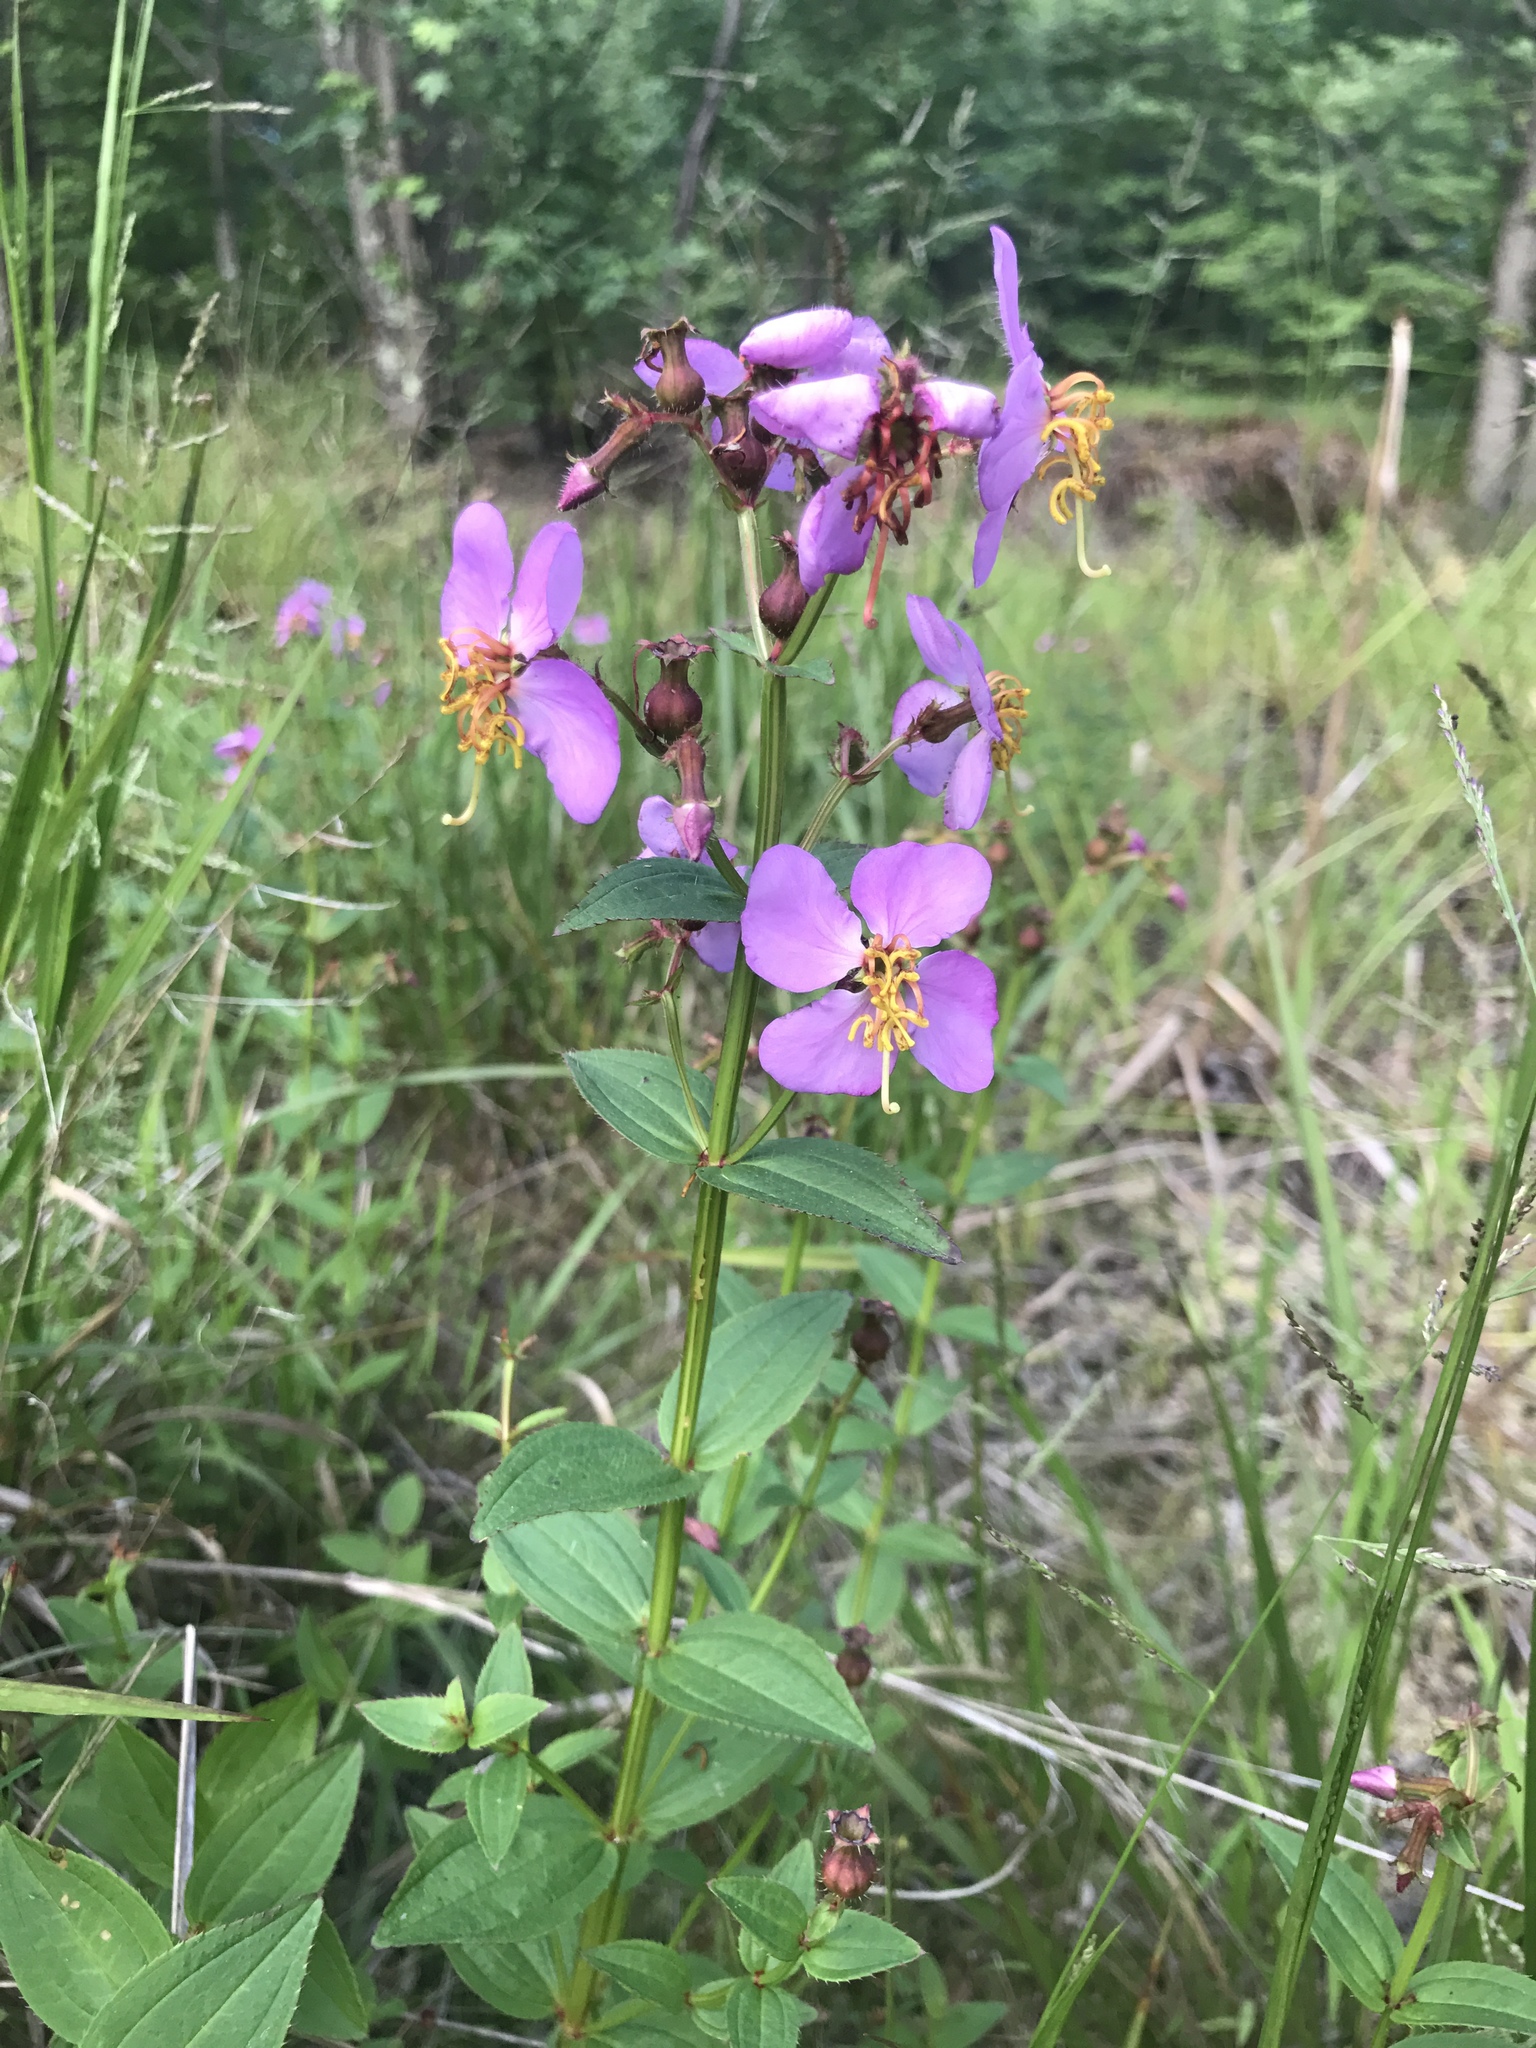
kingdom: Plantae
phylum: Tracheophyta
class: Magnoliopsida
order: Myrtales
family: Melastomataceae
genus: Rhexia
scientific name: Rhexia virginica
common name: Common meadow beauty
